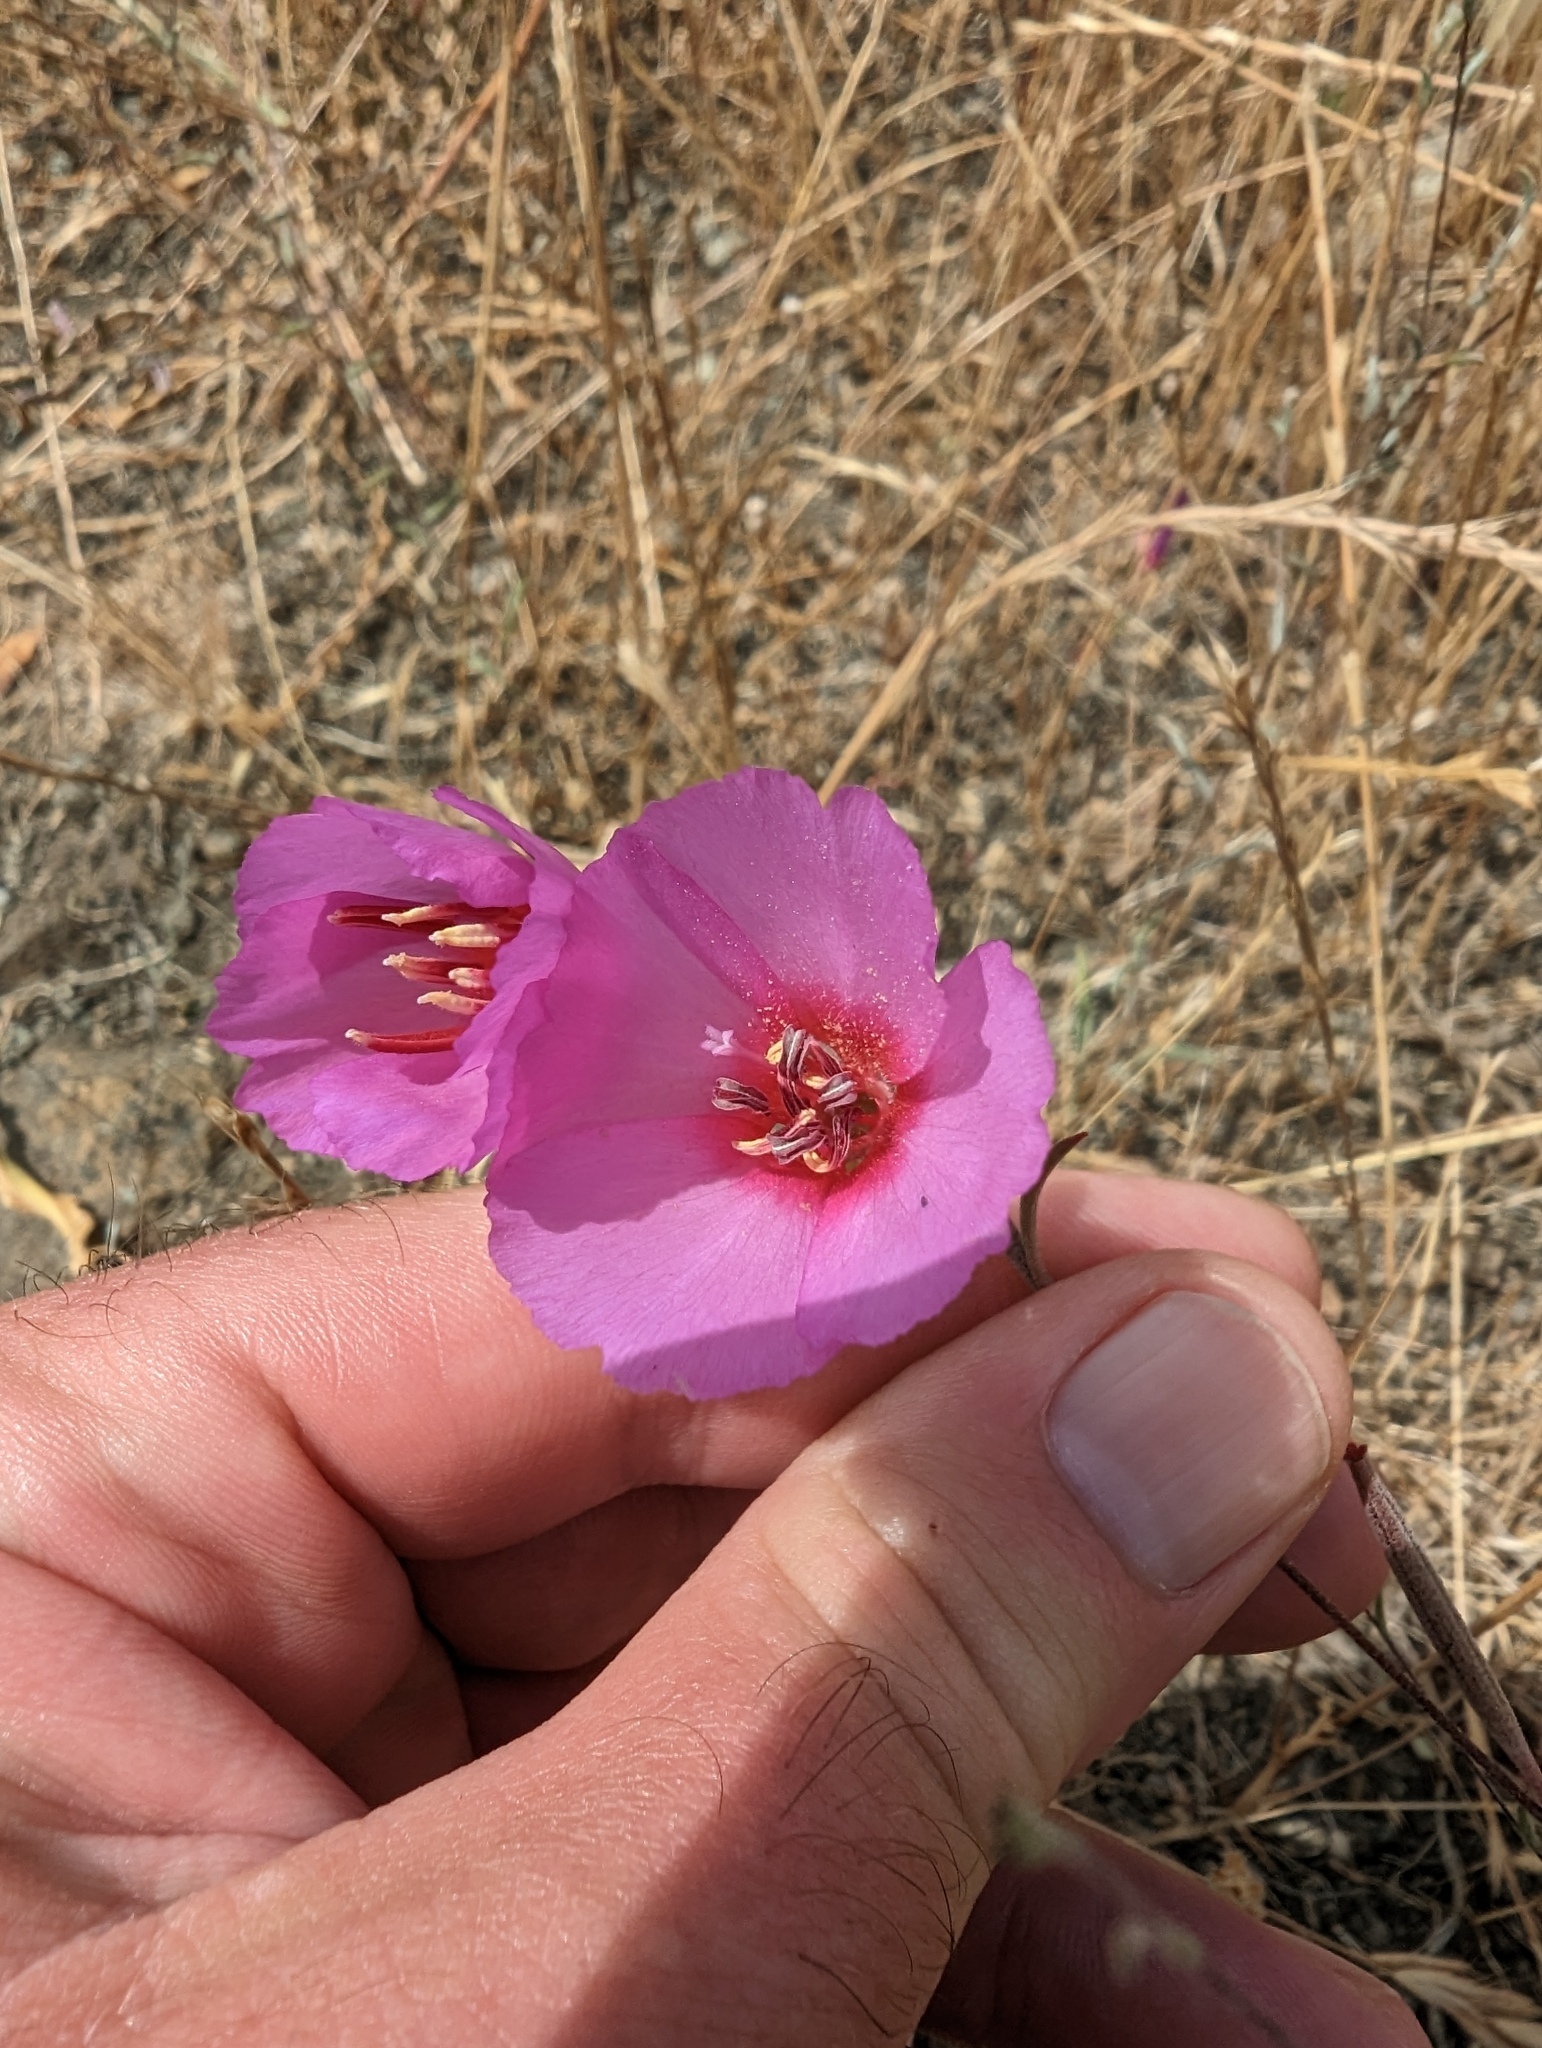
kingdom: Plantae
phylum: Tracheophyta
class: Magnoliopsida
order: Myrtales
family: Onagraceae
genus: Clarkia
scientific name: Clarkia rubicunda
